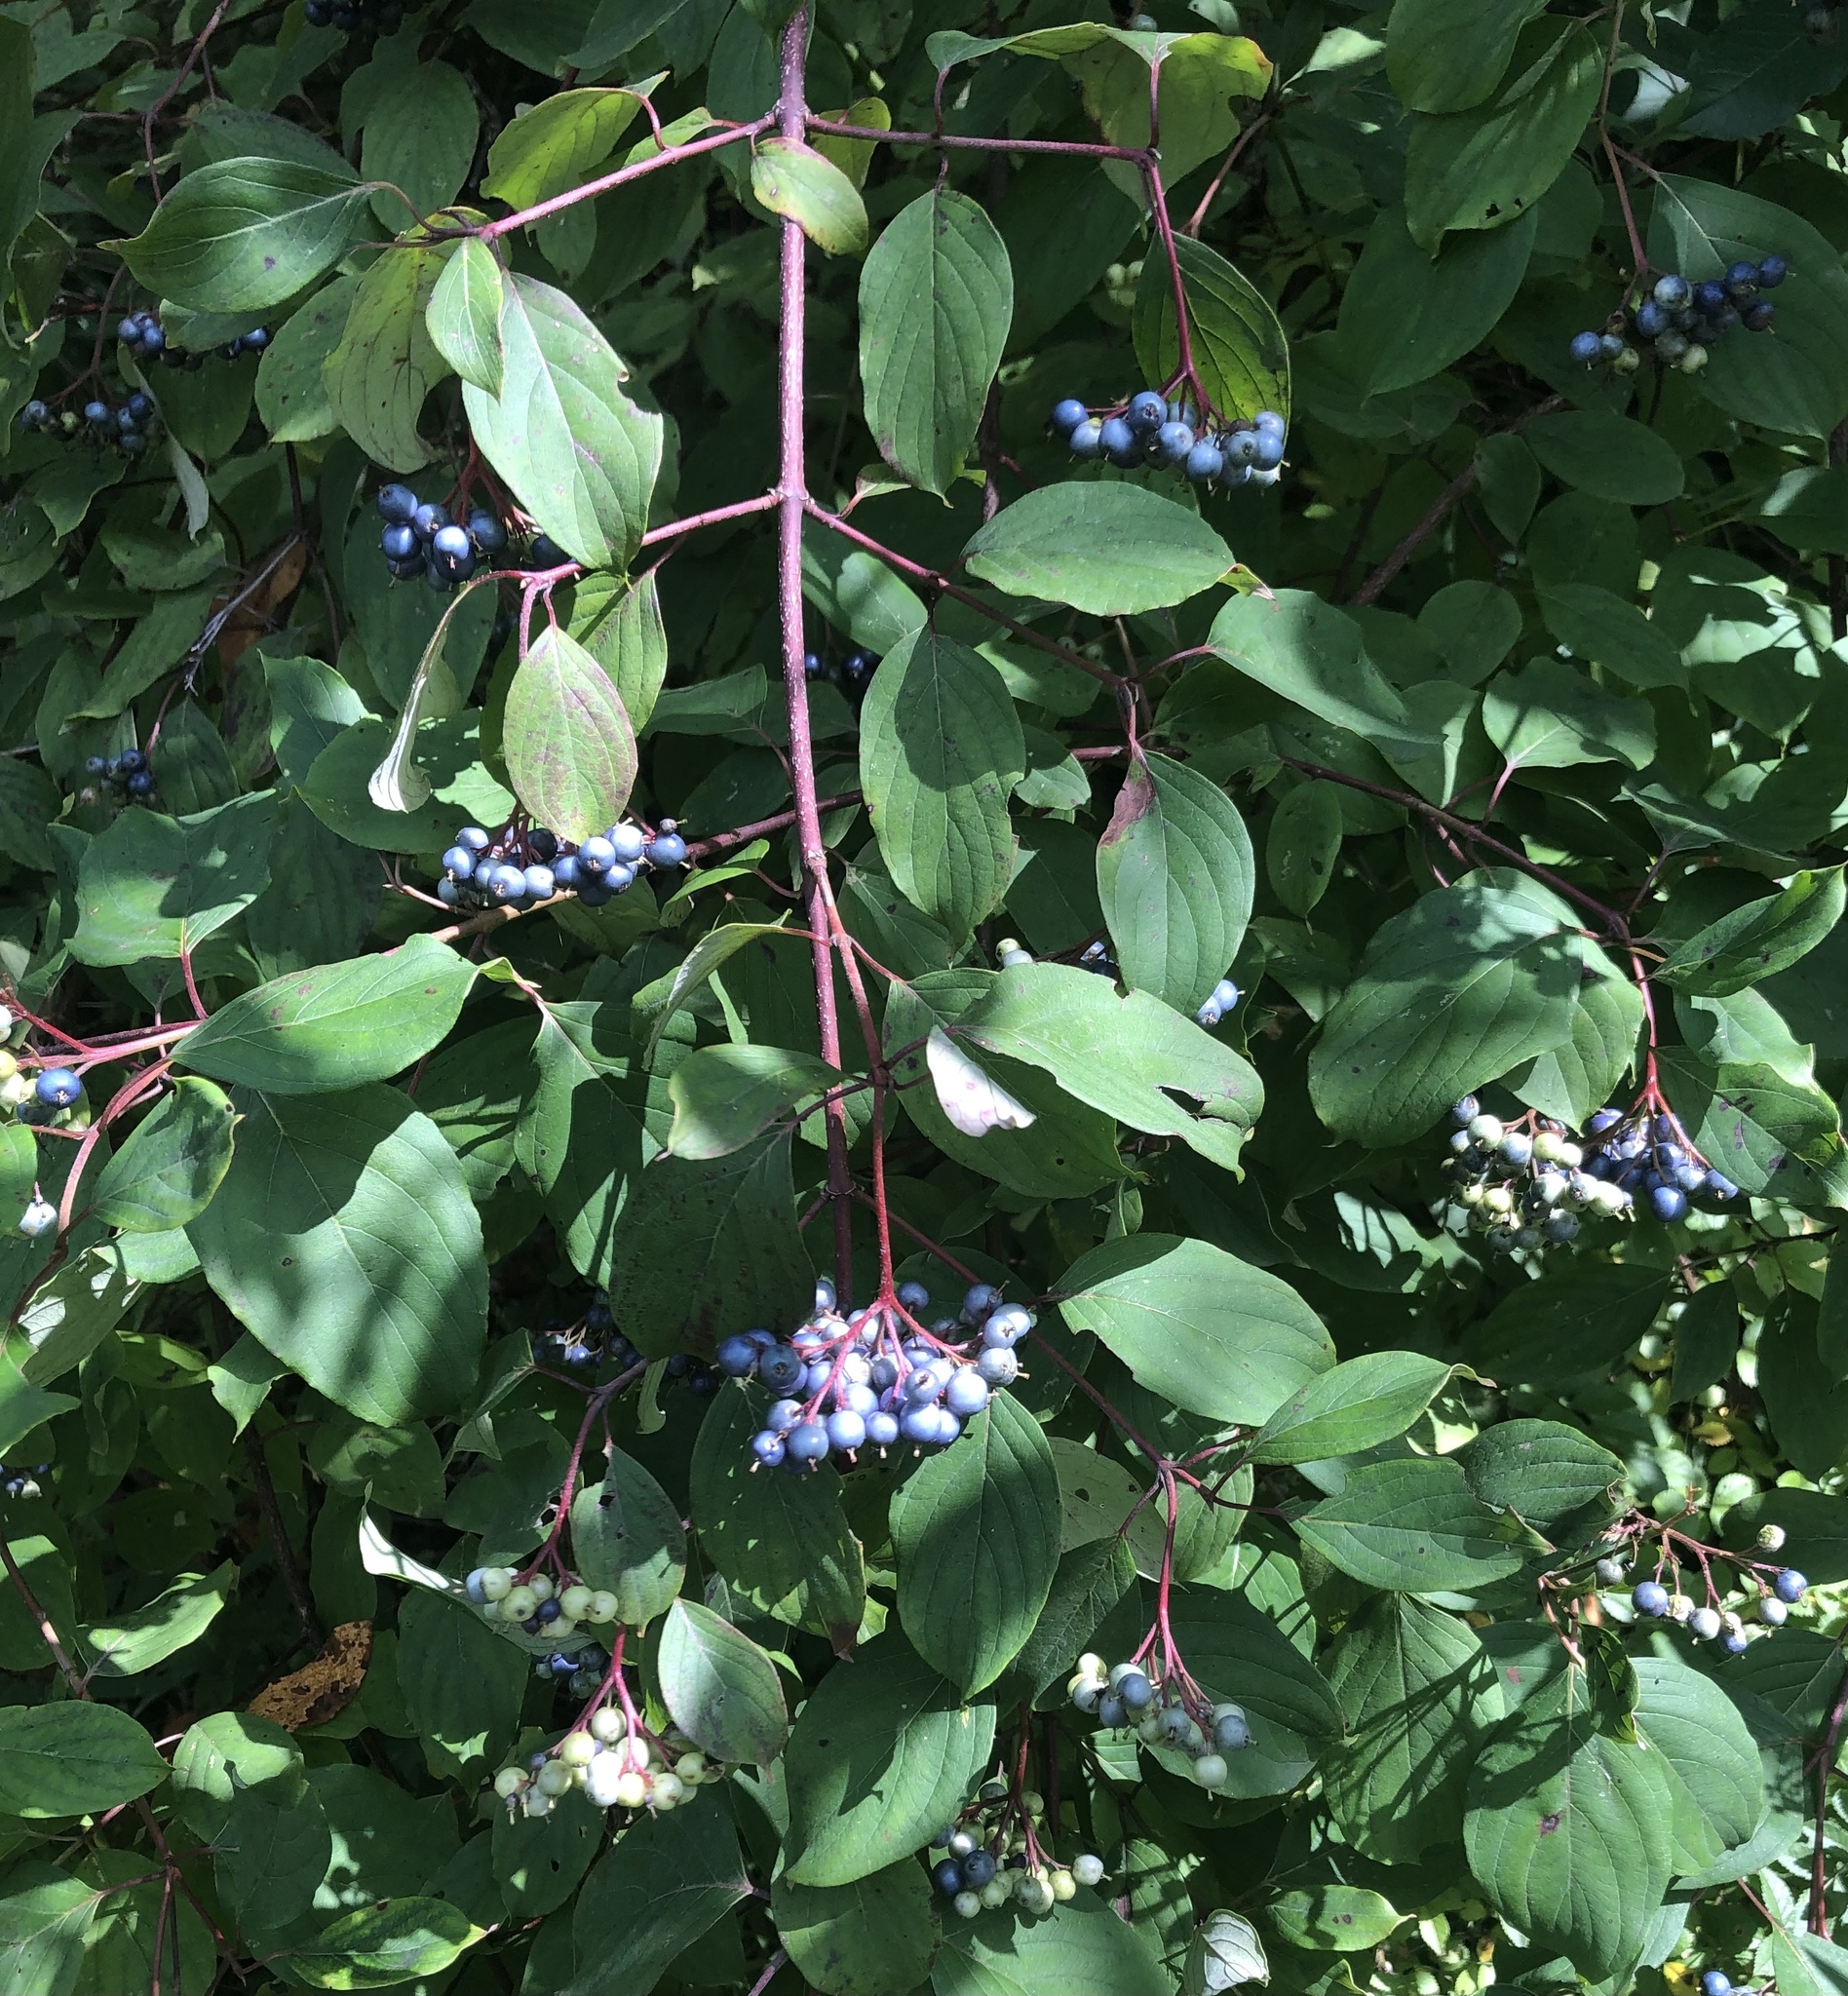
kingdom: Plantae
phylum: Tracheophyta
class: Magnoliopsida
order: Cornales
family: Cornaceae
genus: Cornus
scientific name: Cornus amomum
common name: Silky dogwood
